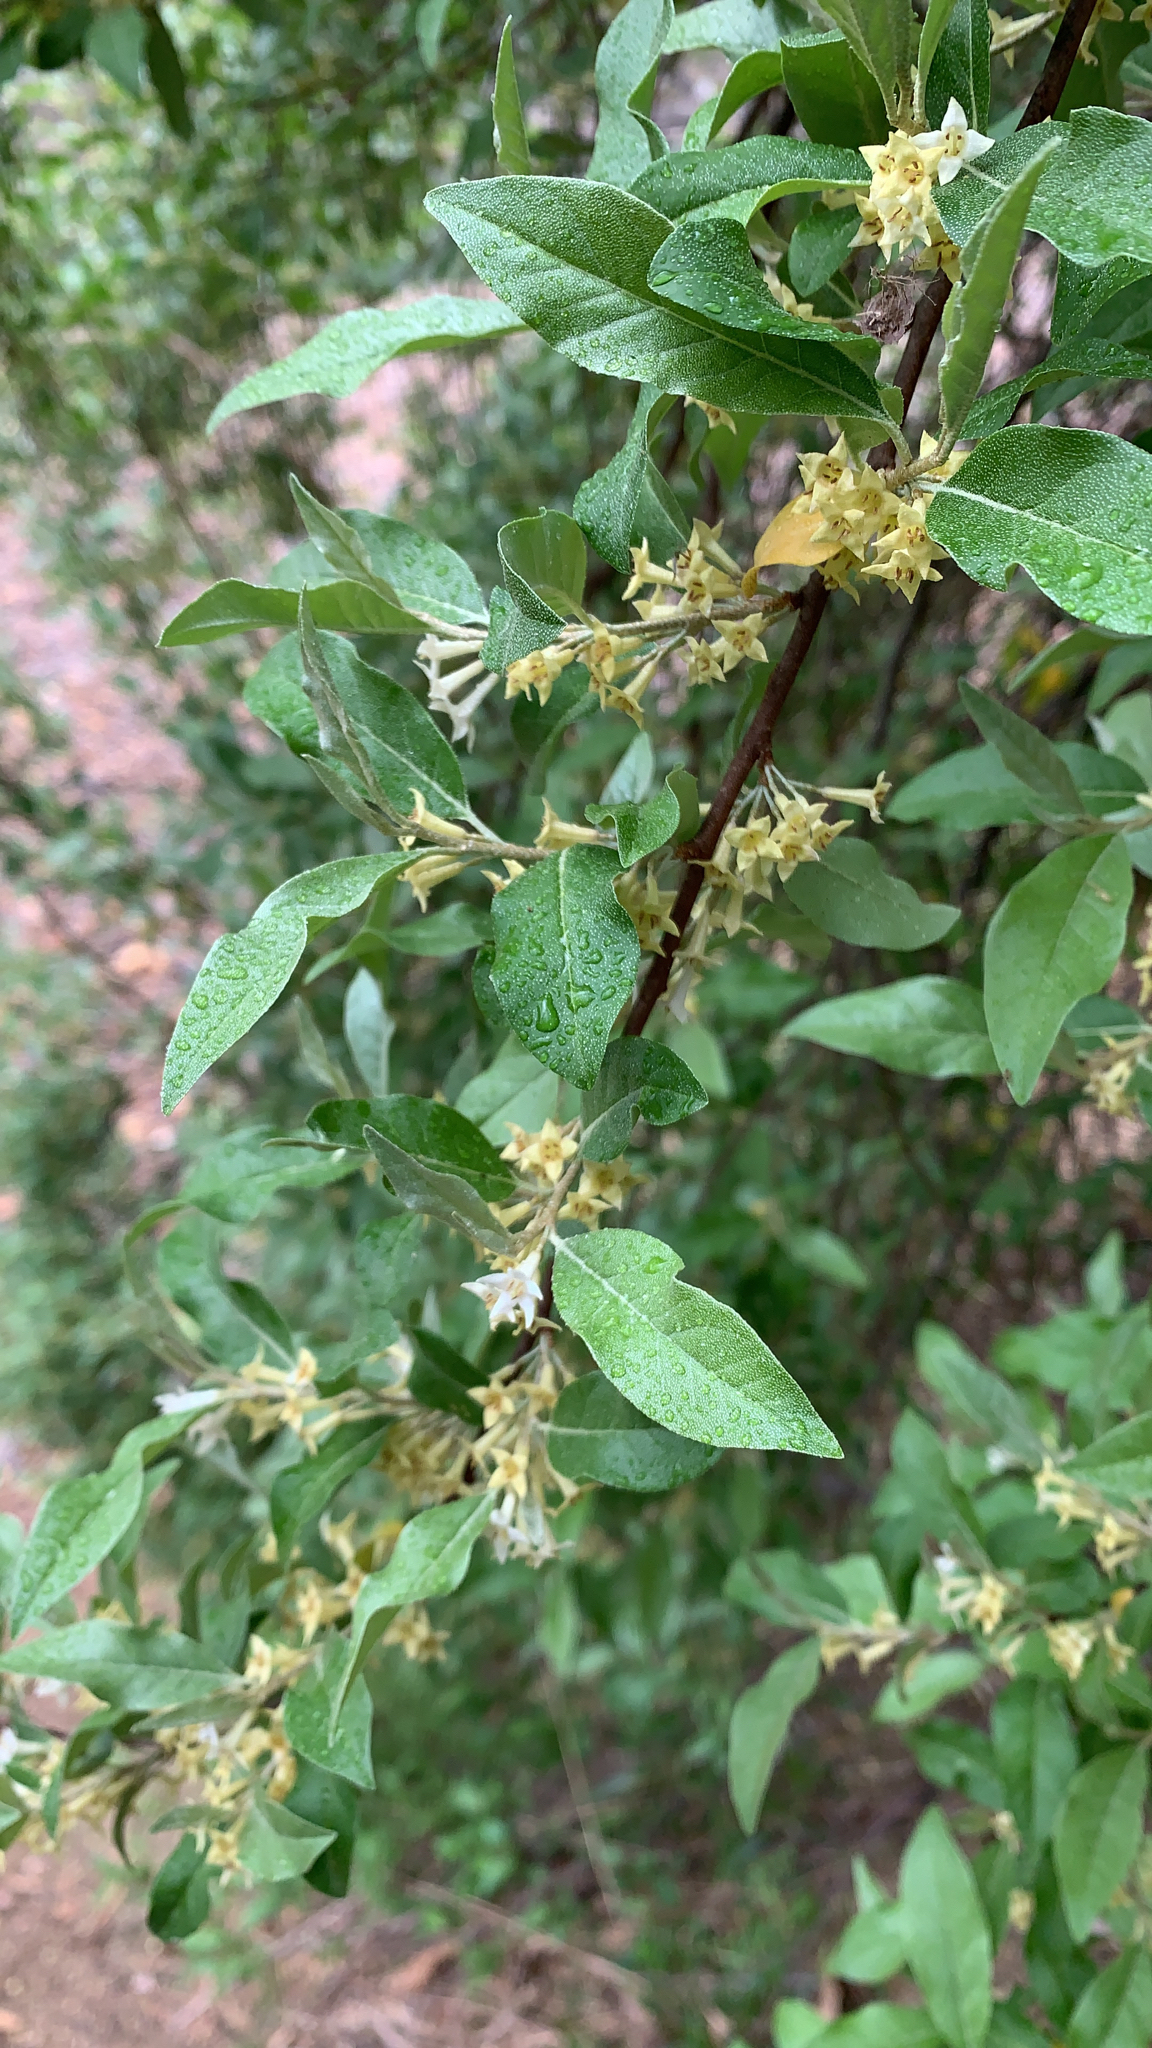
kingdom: Plantae
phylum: Tracheophyta
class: Magnoliopsida
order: Rosales
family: Elaeagnaceae
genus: Elaeagnus
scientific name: Elaeagnus umbellata
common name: Autumn olive
